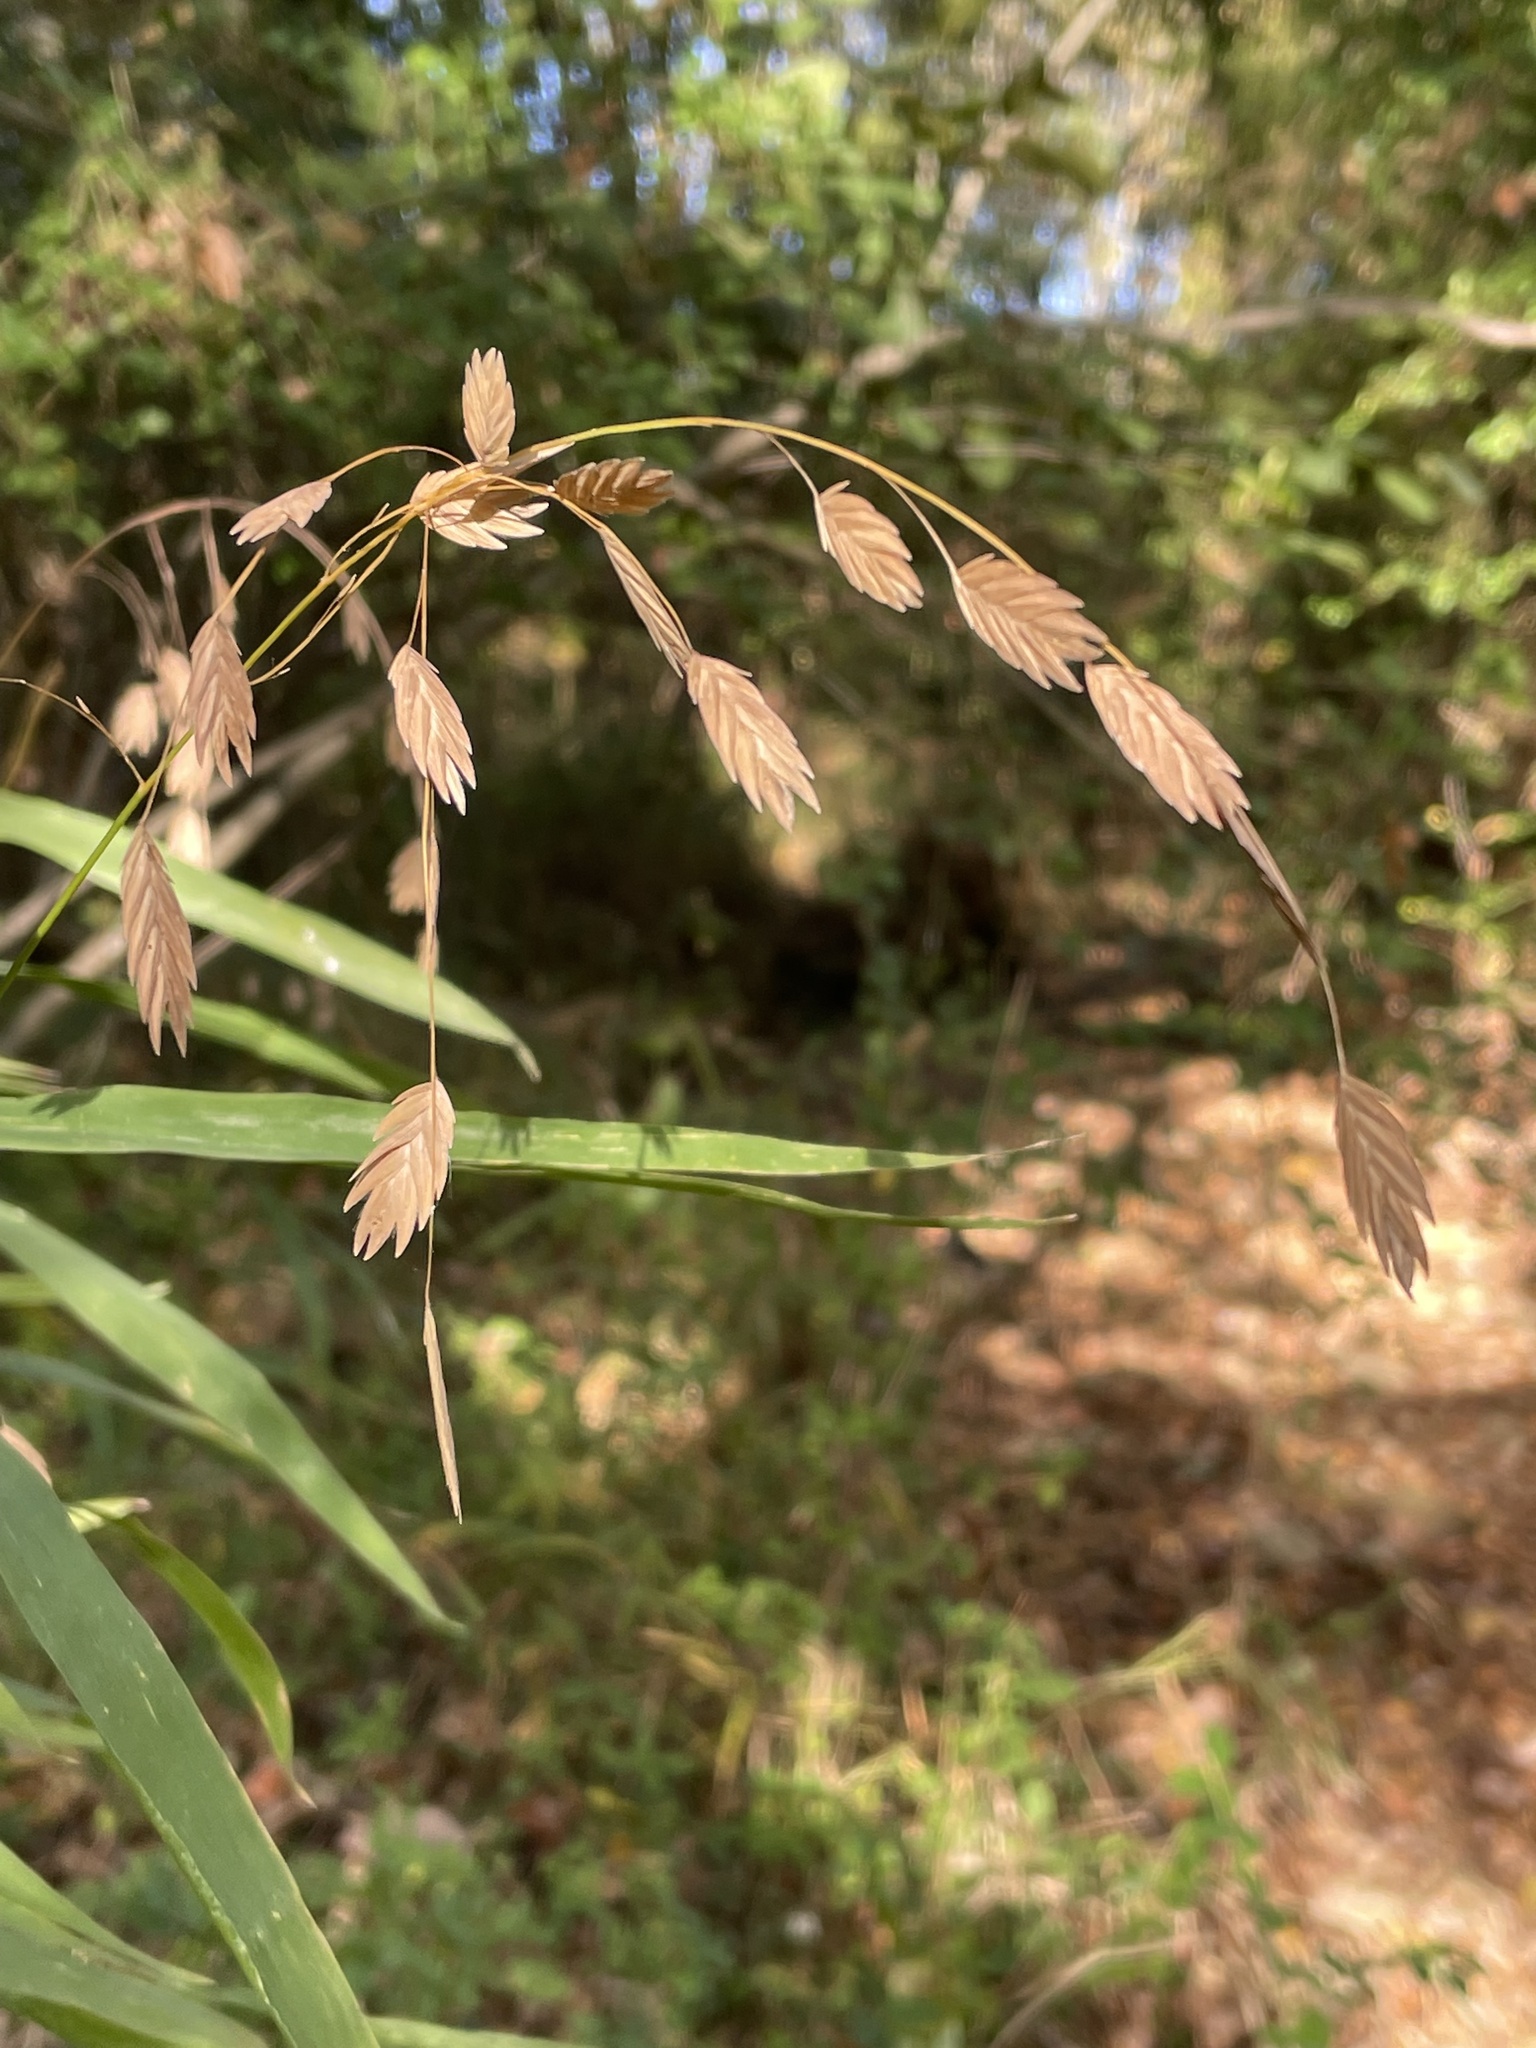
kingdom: Plantae
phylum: Tracheophyta
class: Liliopsida
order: Poales
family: Poaceae
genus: Chasmanthium
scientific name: Chasmanthium latifolium
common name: Broad-leaved chasmanthium
